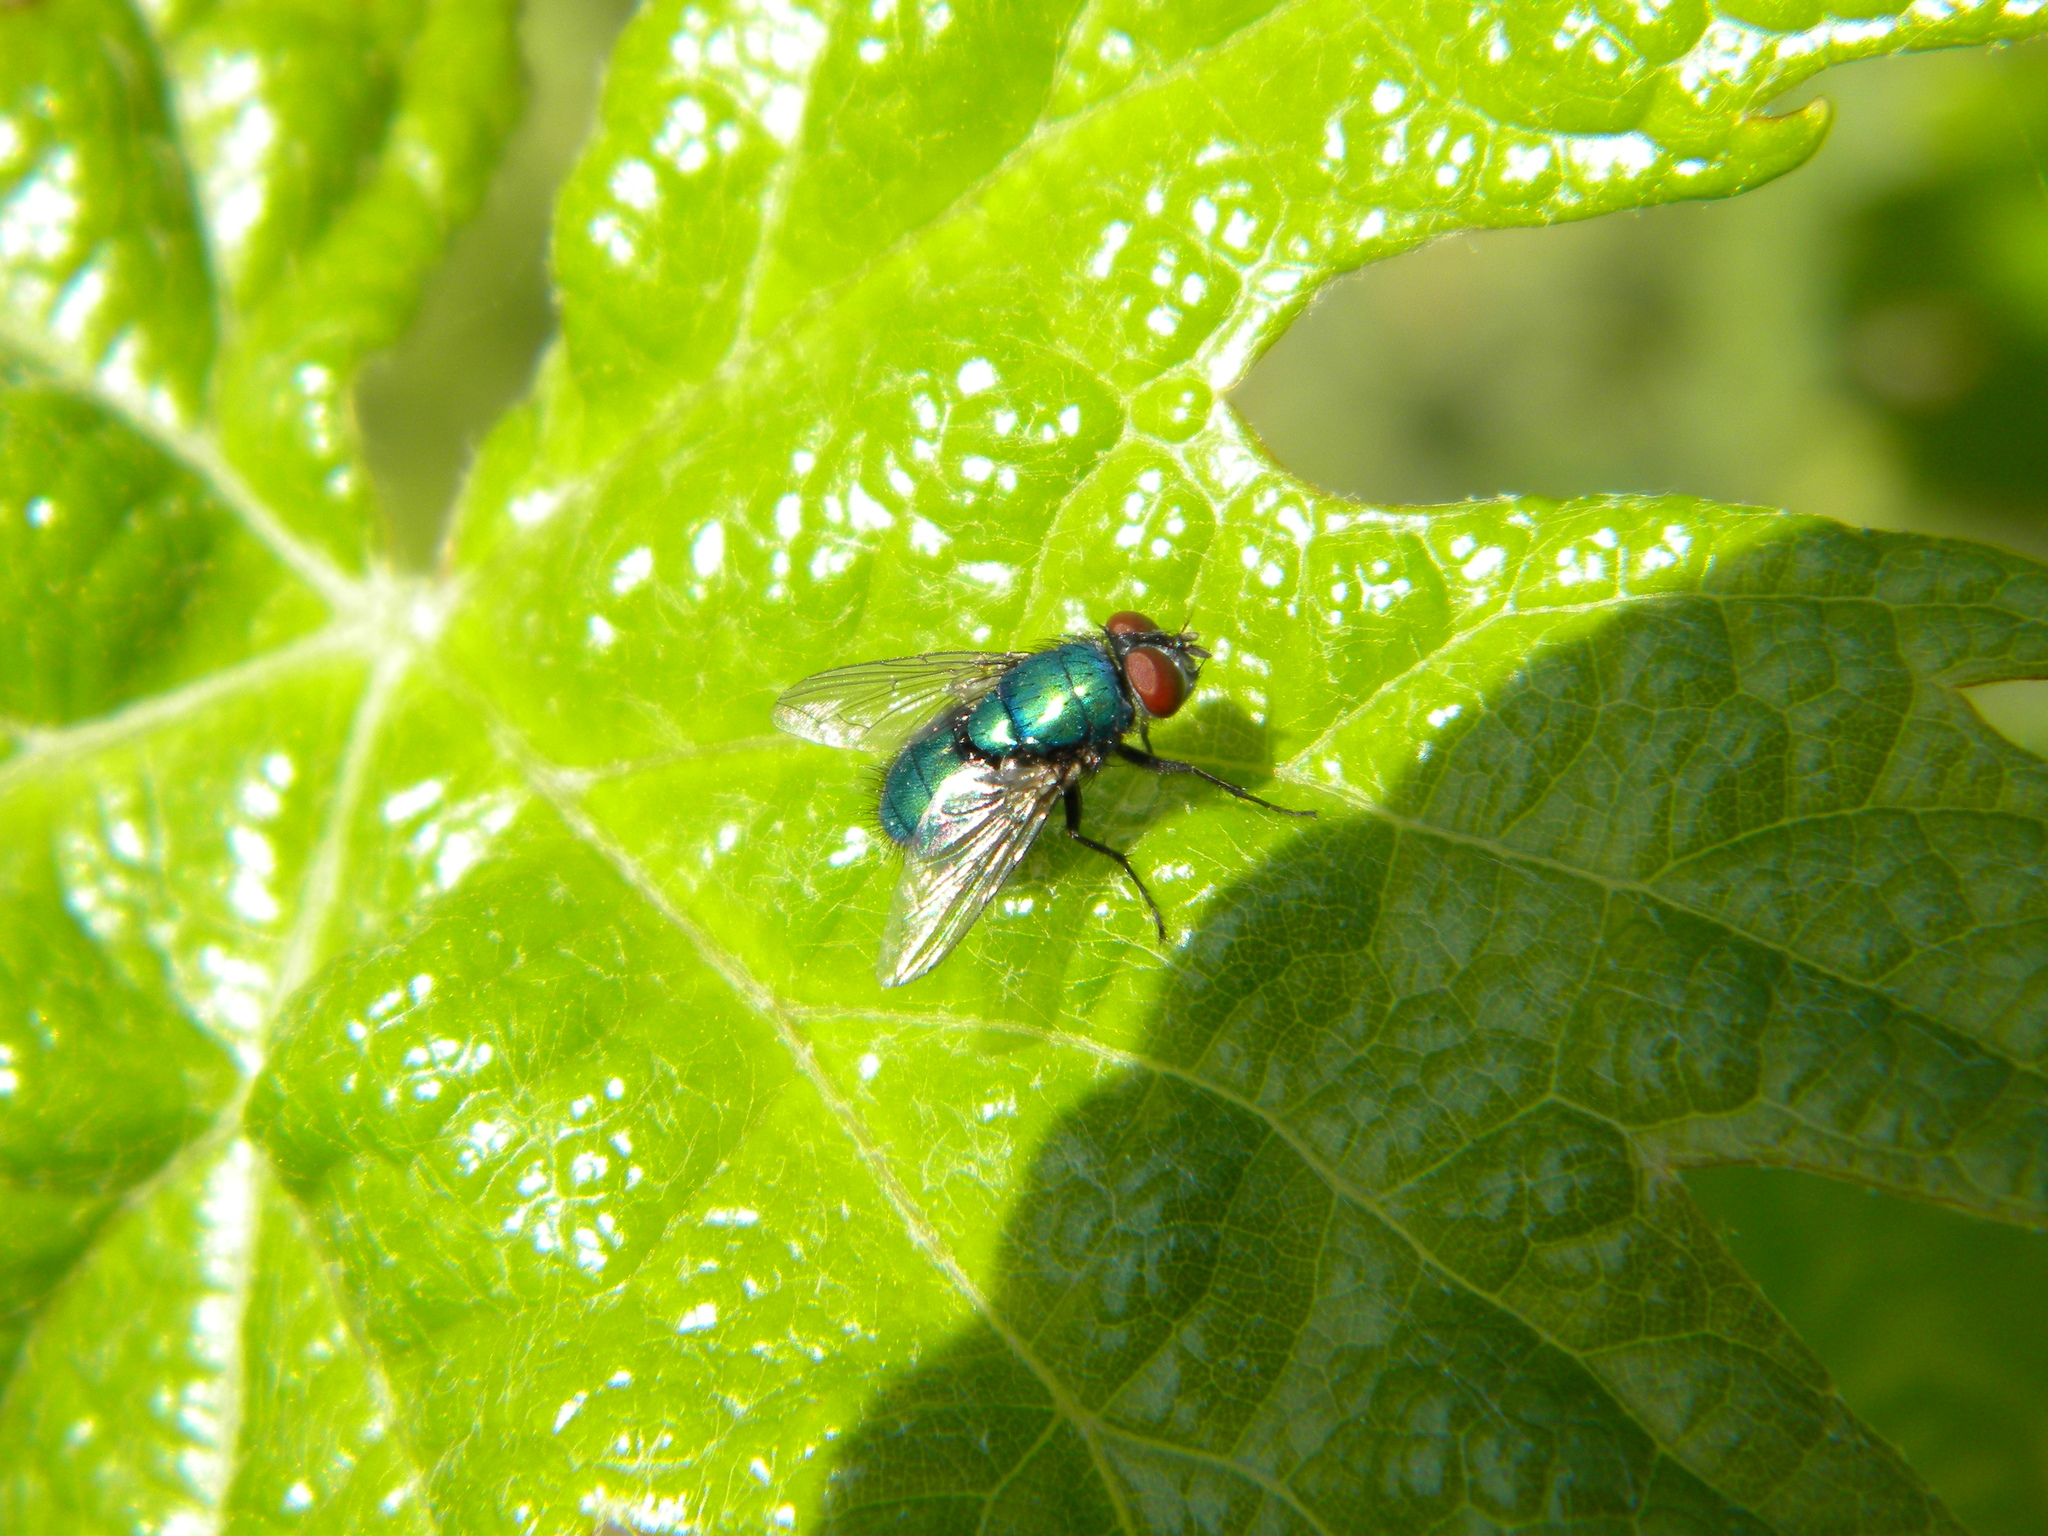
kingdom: Animalia
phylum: Arthropoda
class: Insecta
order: Diptera
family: Calliphoridae
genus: Lucilia
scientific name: Lucilia sericata
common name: Blow fly
